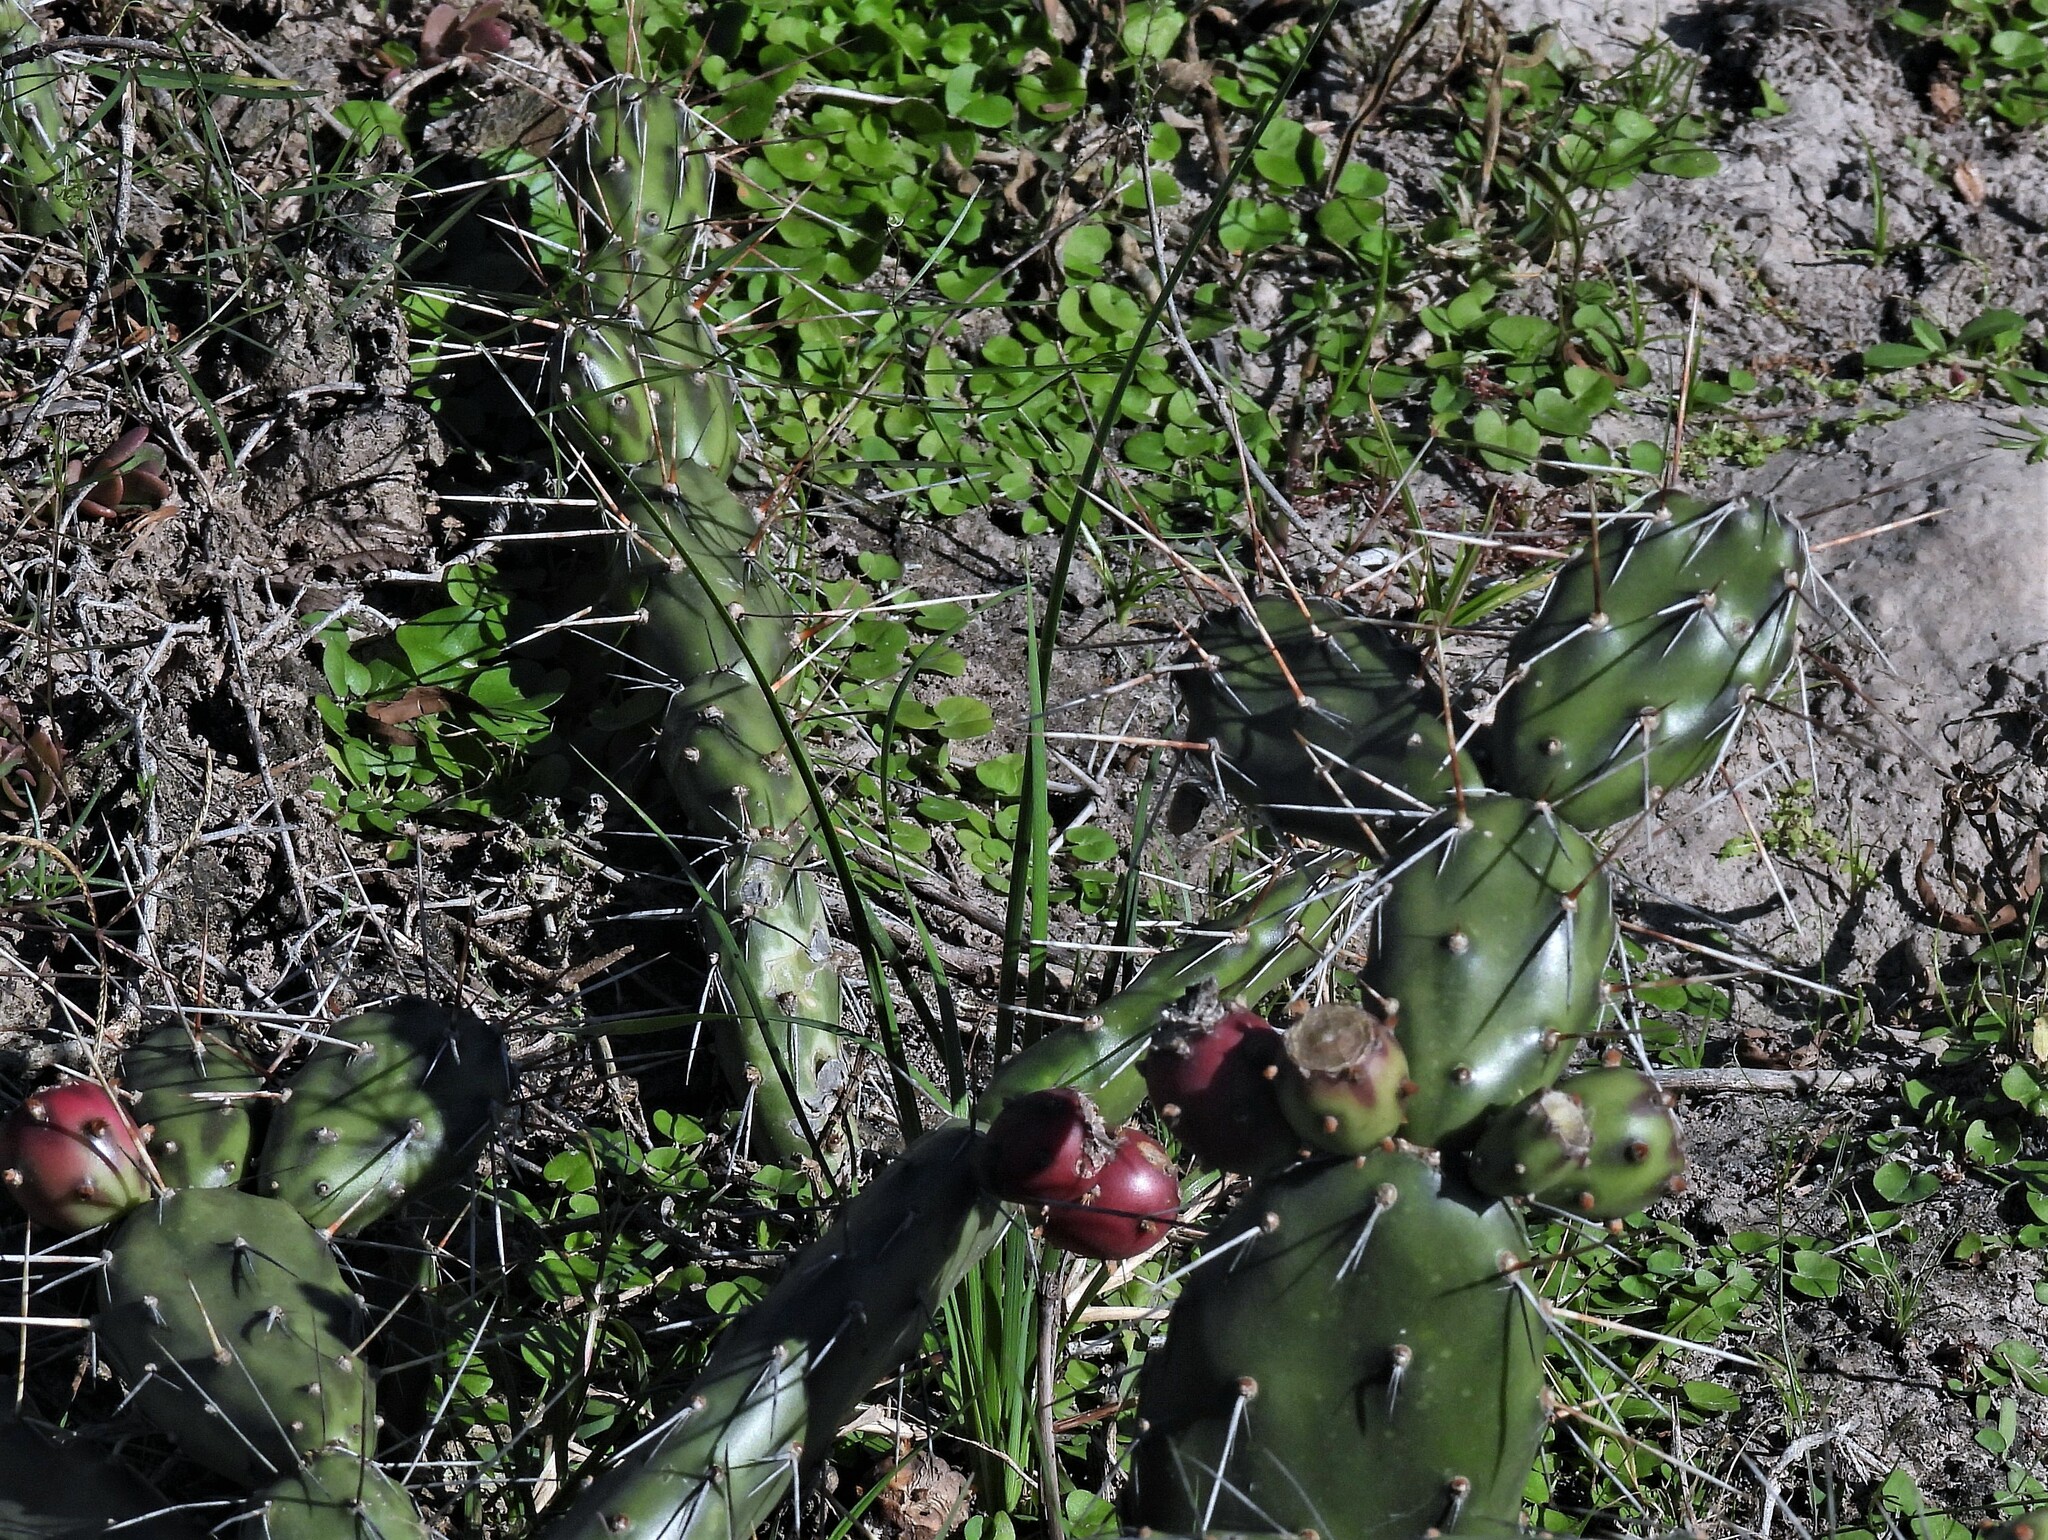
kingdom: Plantae
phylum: Tracheophyta
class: Magnoliopsida
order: Caryophyllales
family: Cactaceae
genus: Opuntia
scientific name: Opuntia elata
